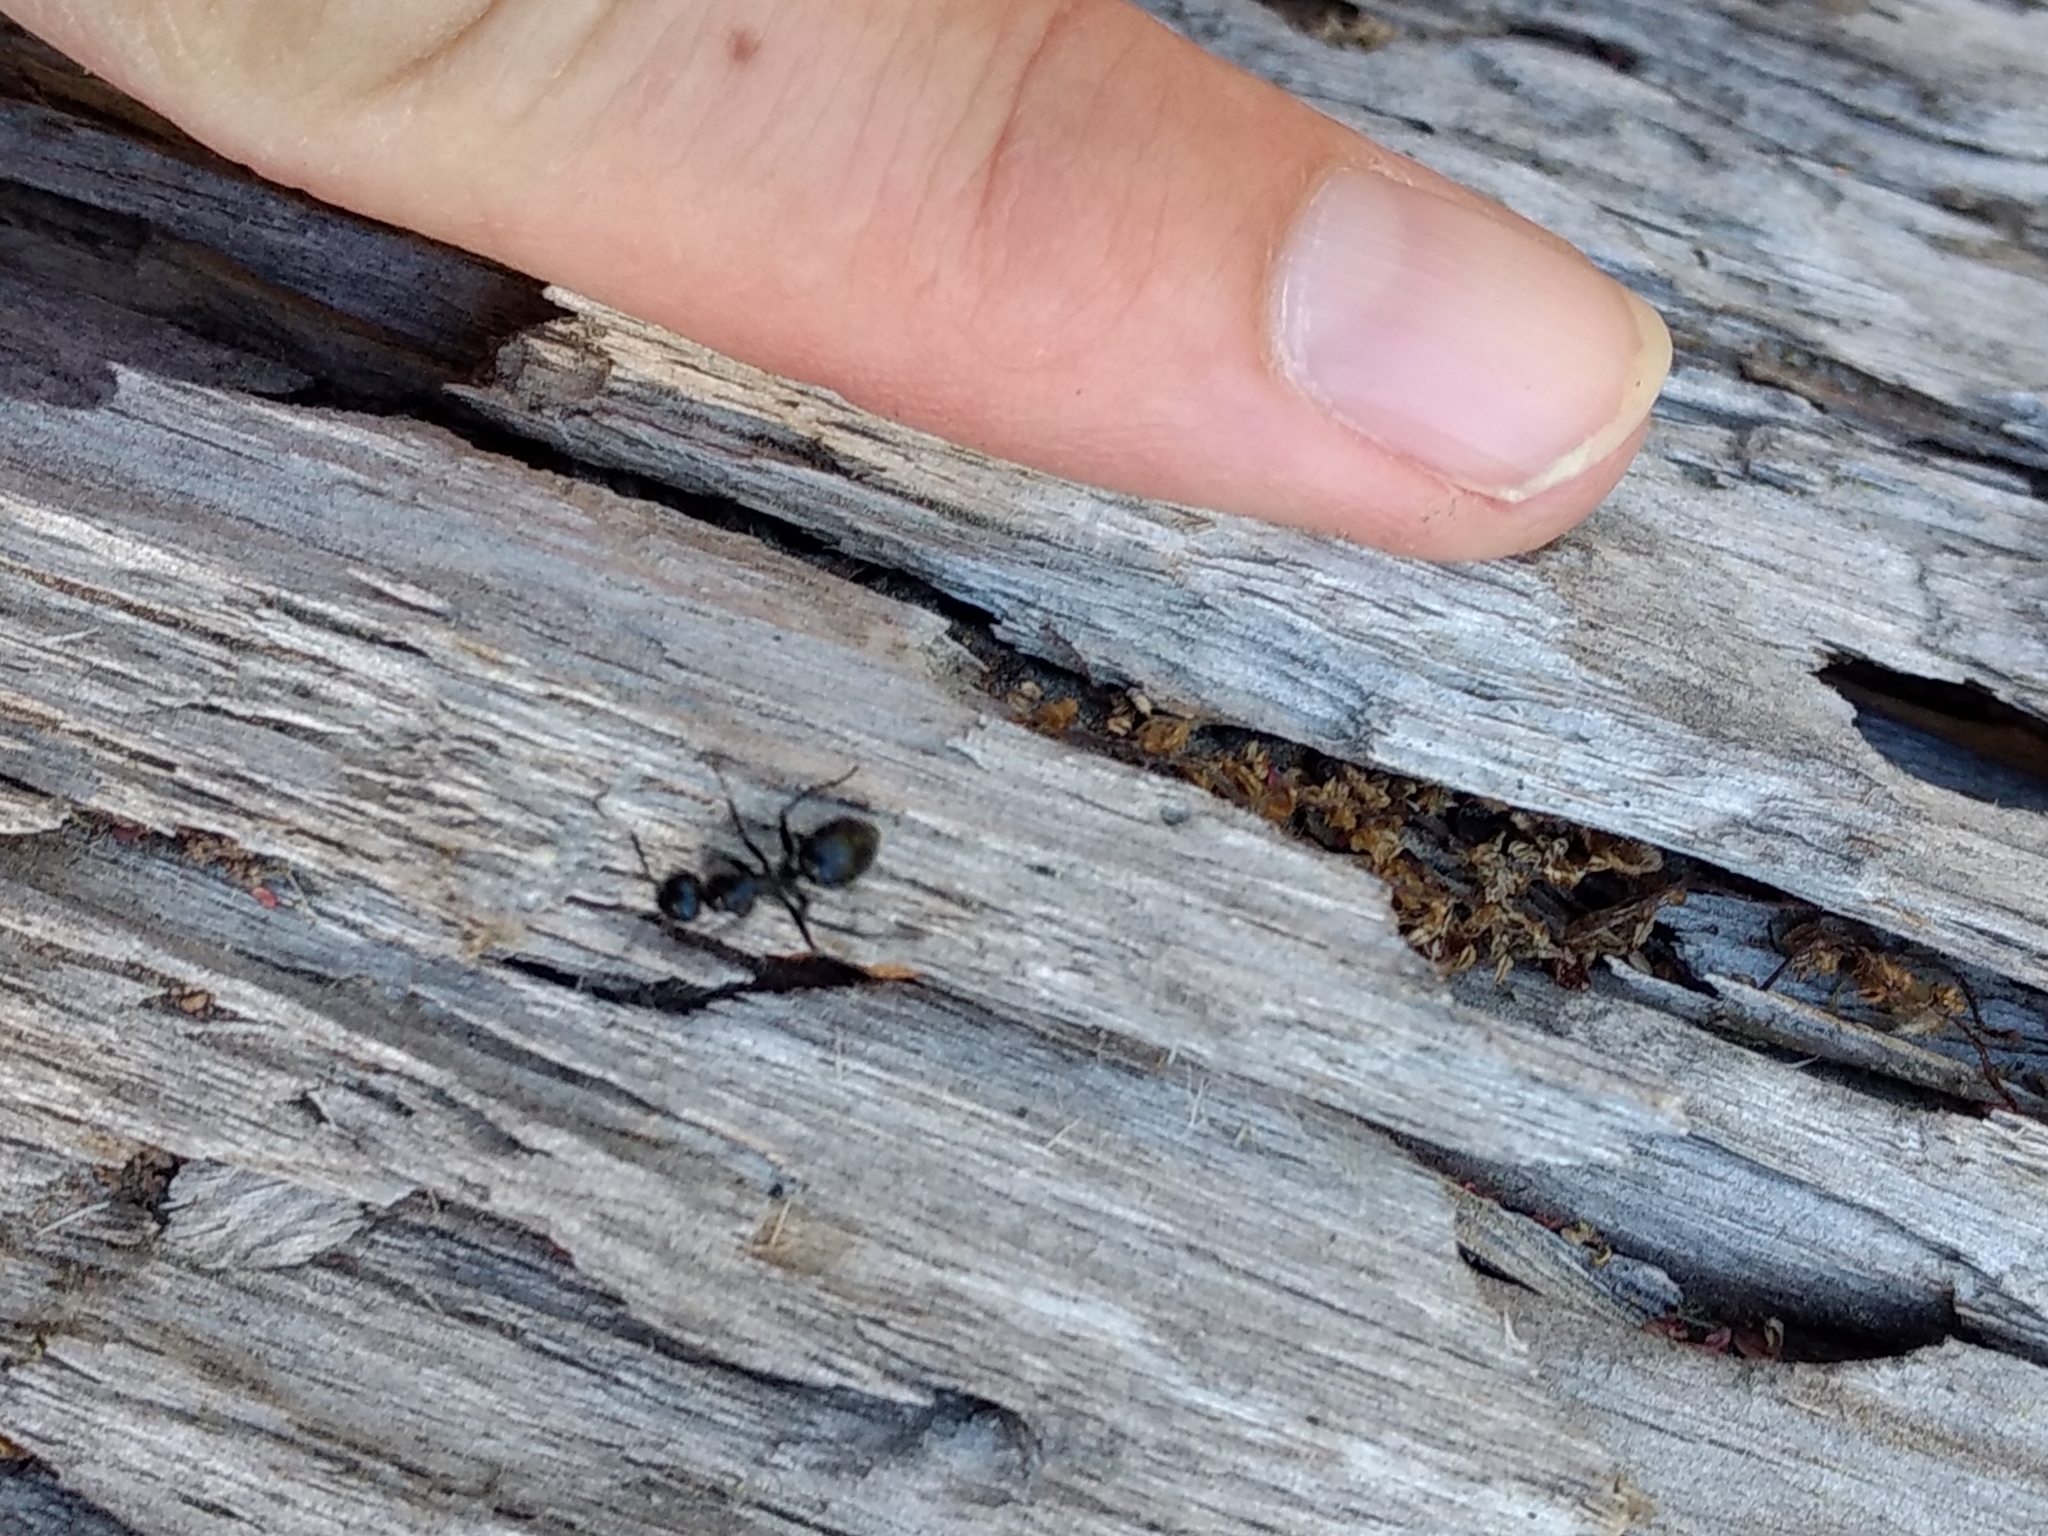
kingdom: Animalia
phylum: Arthropoda
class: Insecta
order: Hymenoptera
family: Formicidae
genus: Camponotus
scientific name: Camponotus
